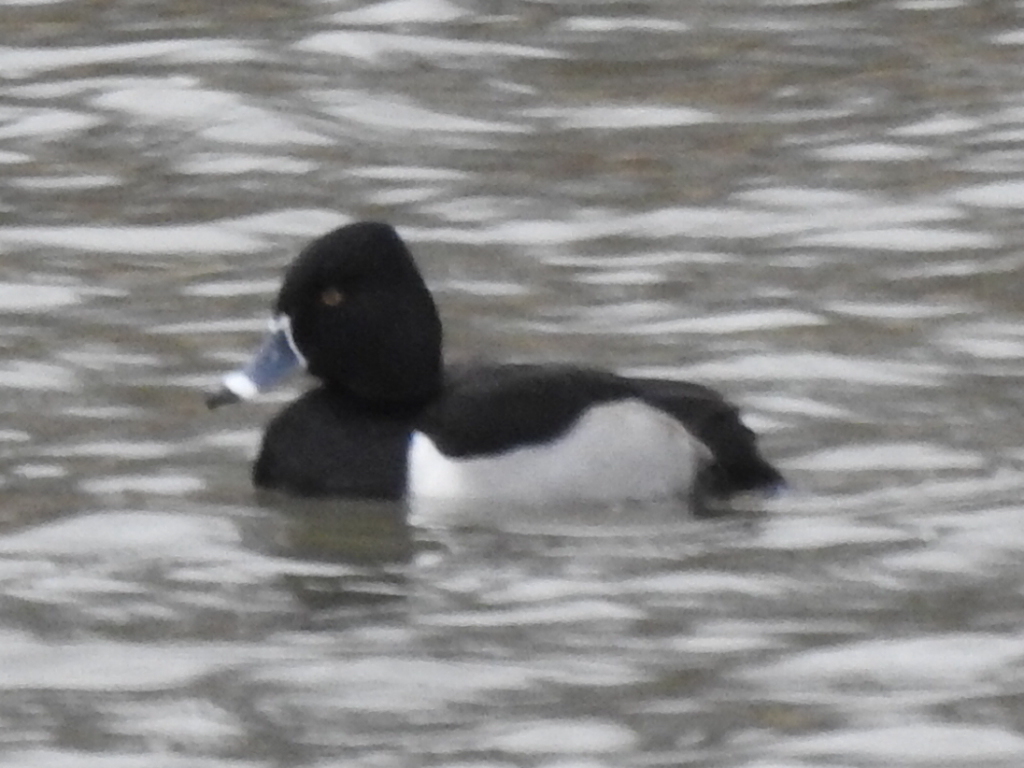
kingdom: Animalia
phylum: Chordata
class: Aves
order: Anseriformes
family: Anatidae
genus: Aythya
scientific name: Aythya collaris
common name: Ring-necked duck
